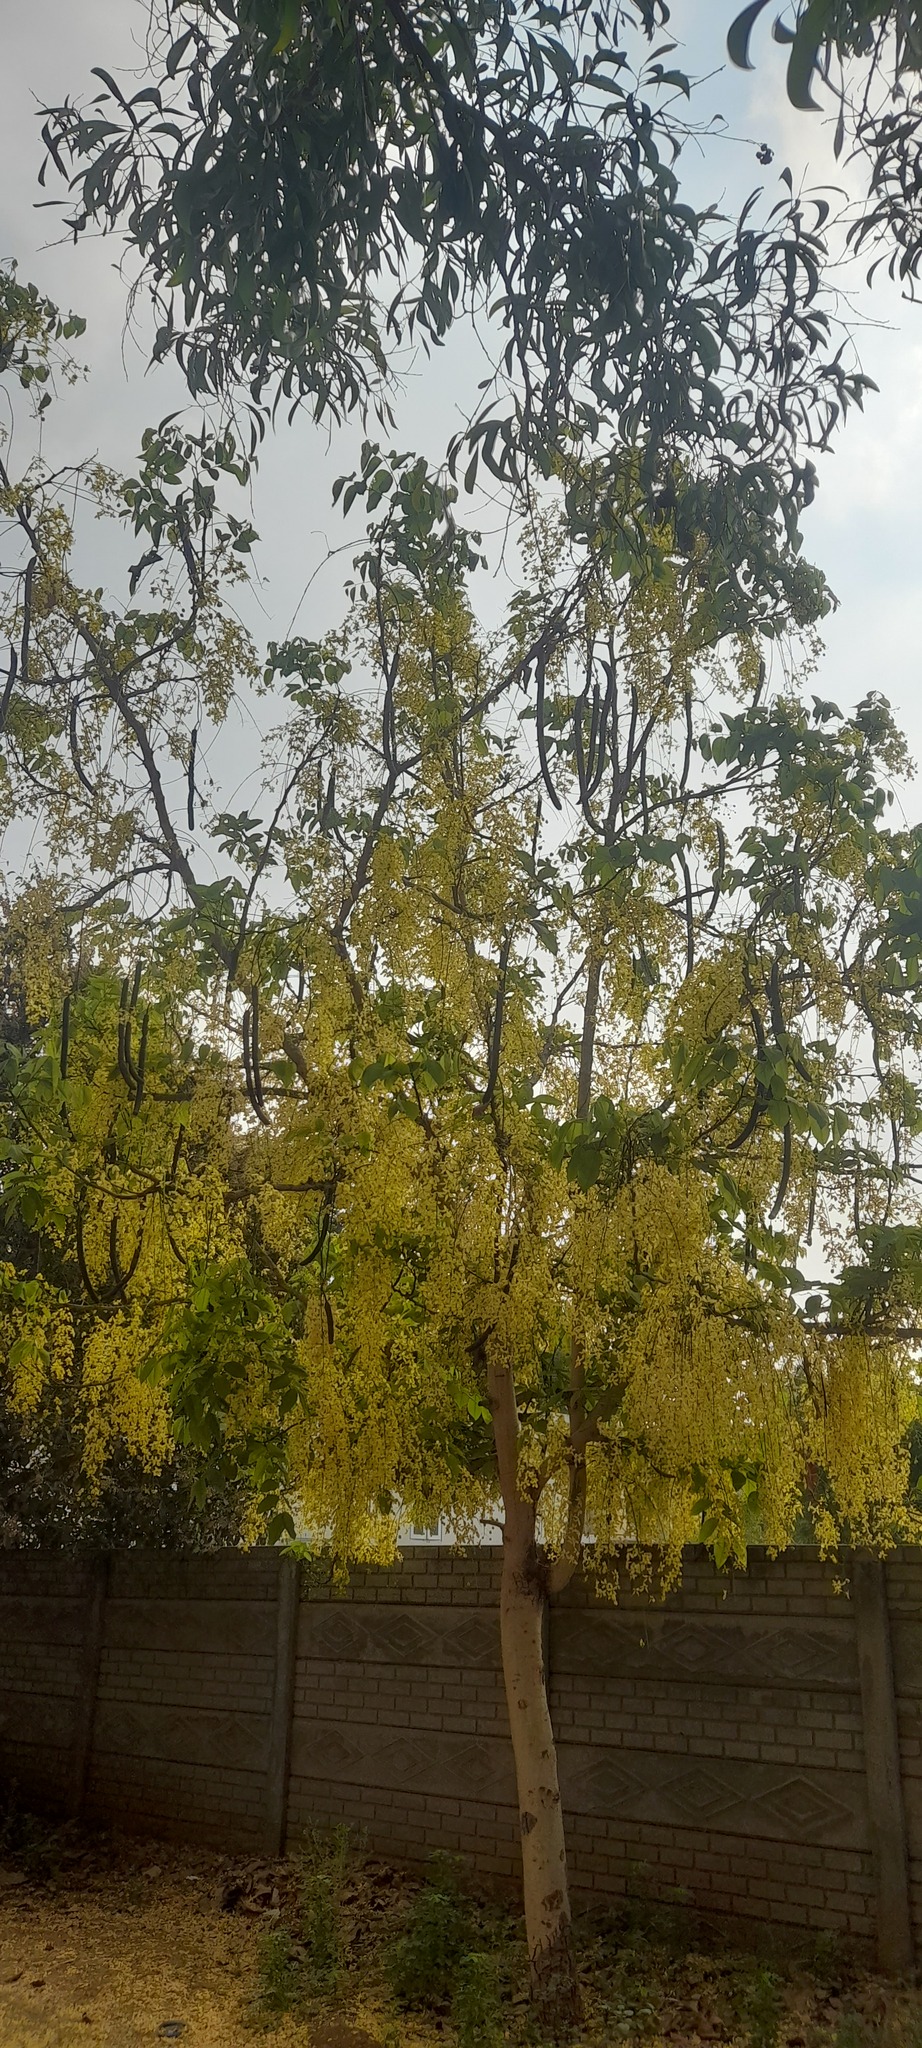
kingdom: Plantae
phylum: Tracheophyta
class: Magnoliopsida
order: Fabales
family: Fabaceae
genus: Cassia
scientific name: Cassia fistula
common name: Golden shower
